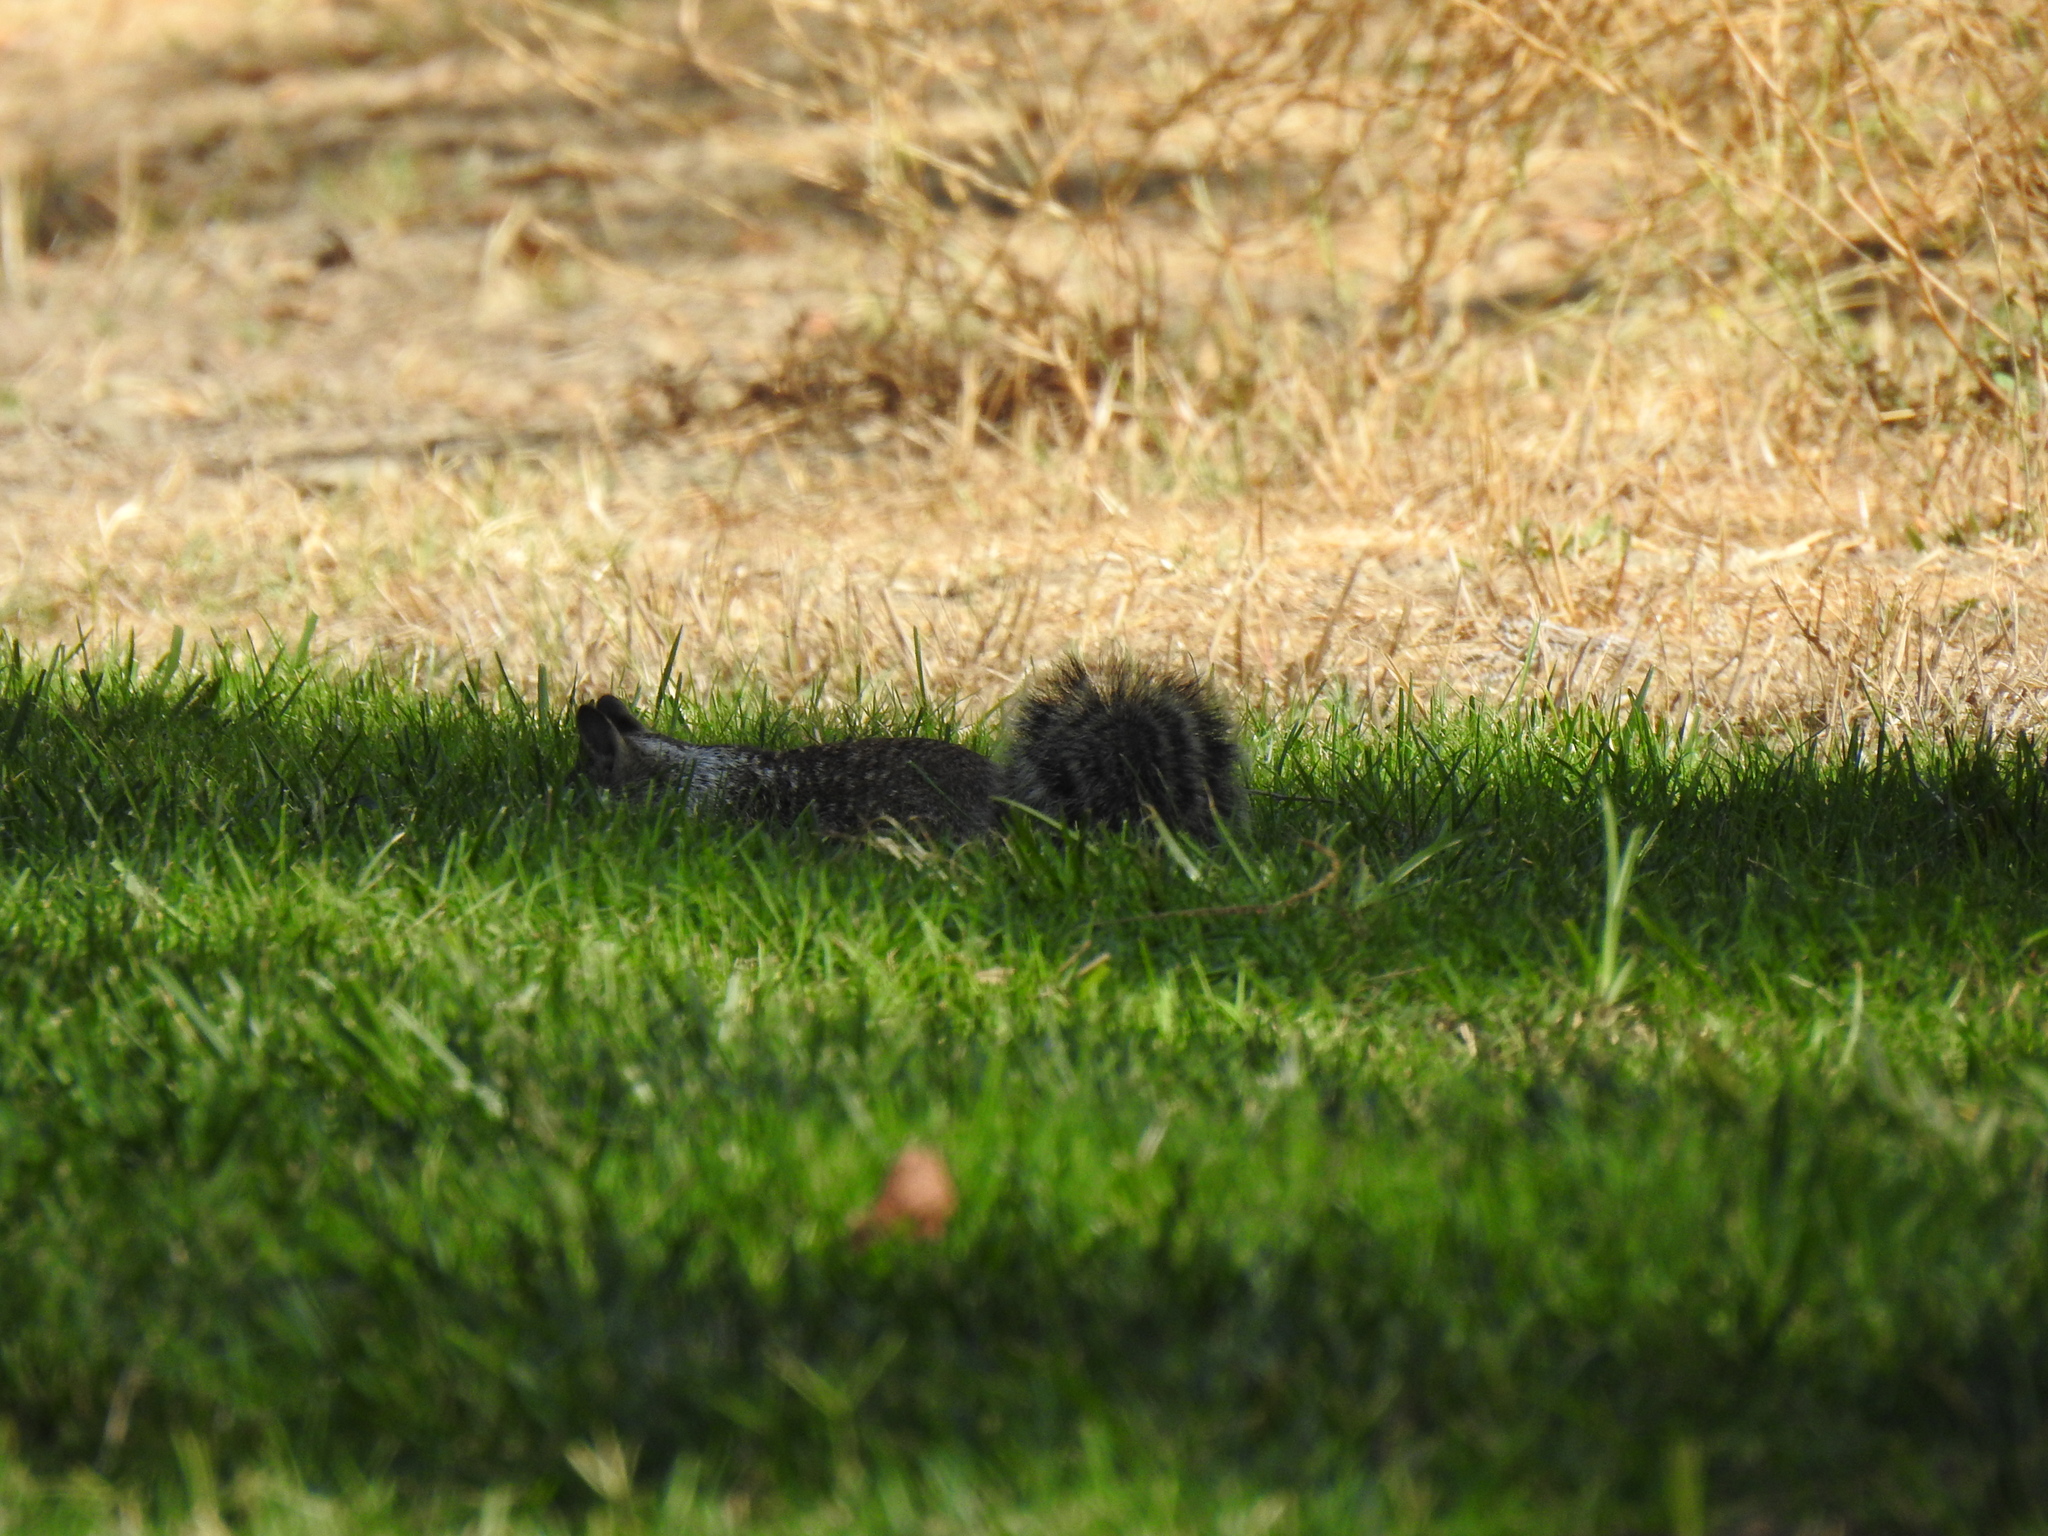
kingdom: Animalia
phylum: Chordata
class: Mammalia
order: Rodentia
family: Sciuridae
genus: Otospermophilus
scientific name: Otospermophilus beecheyi
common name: California ground squirrel
